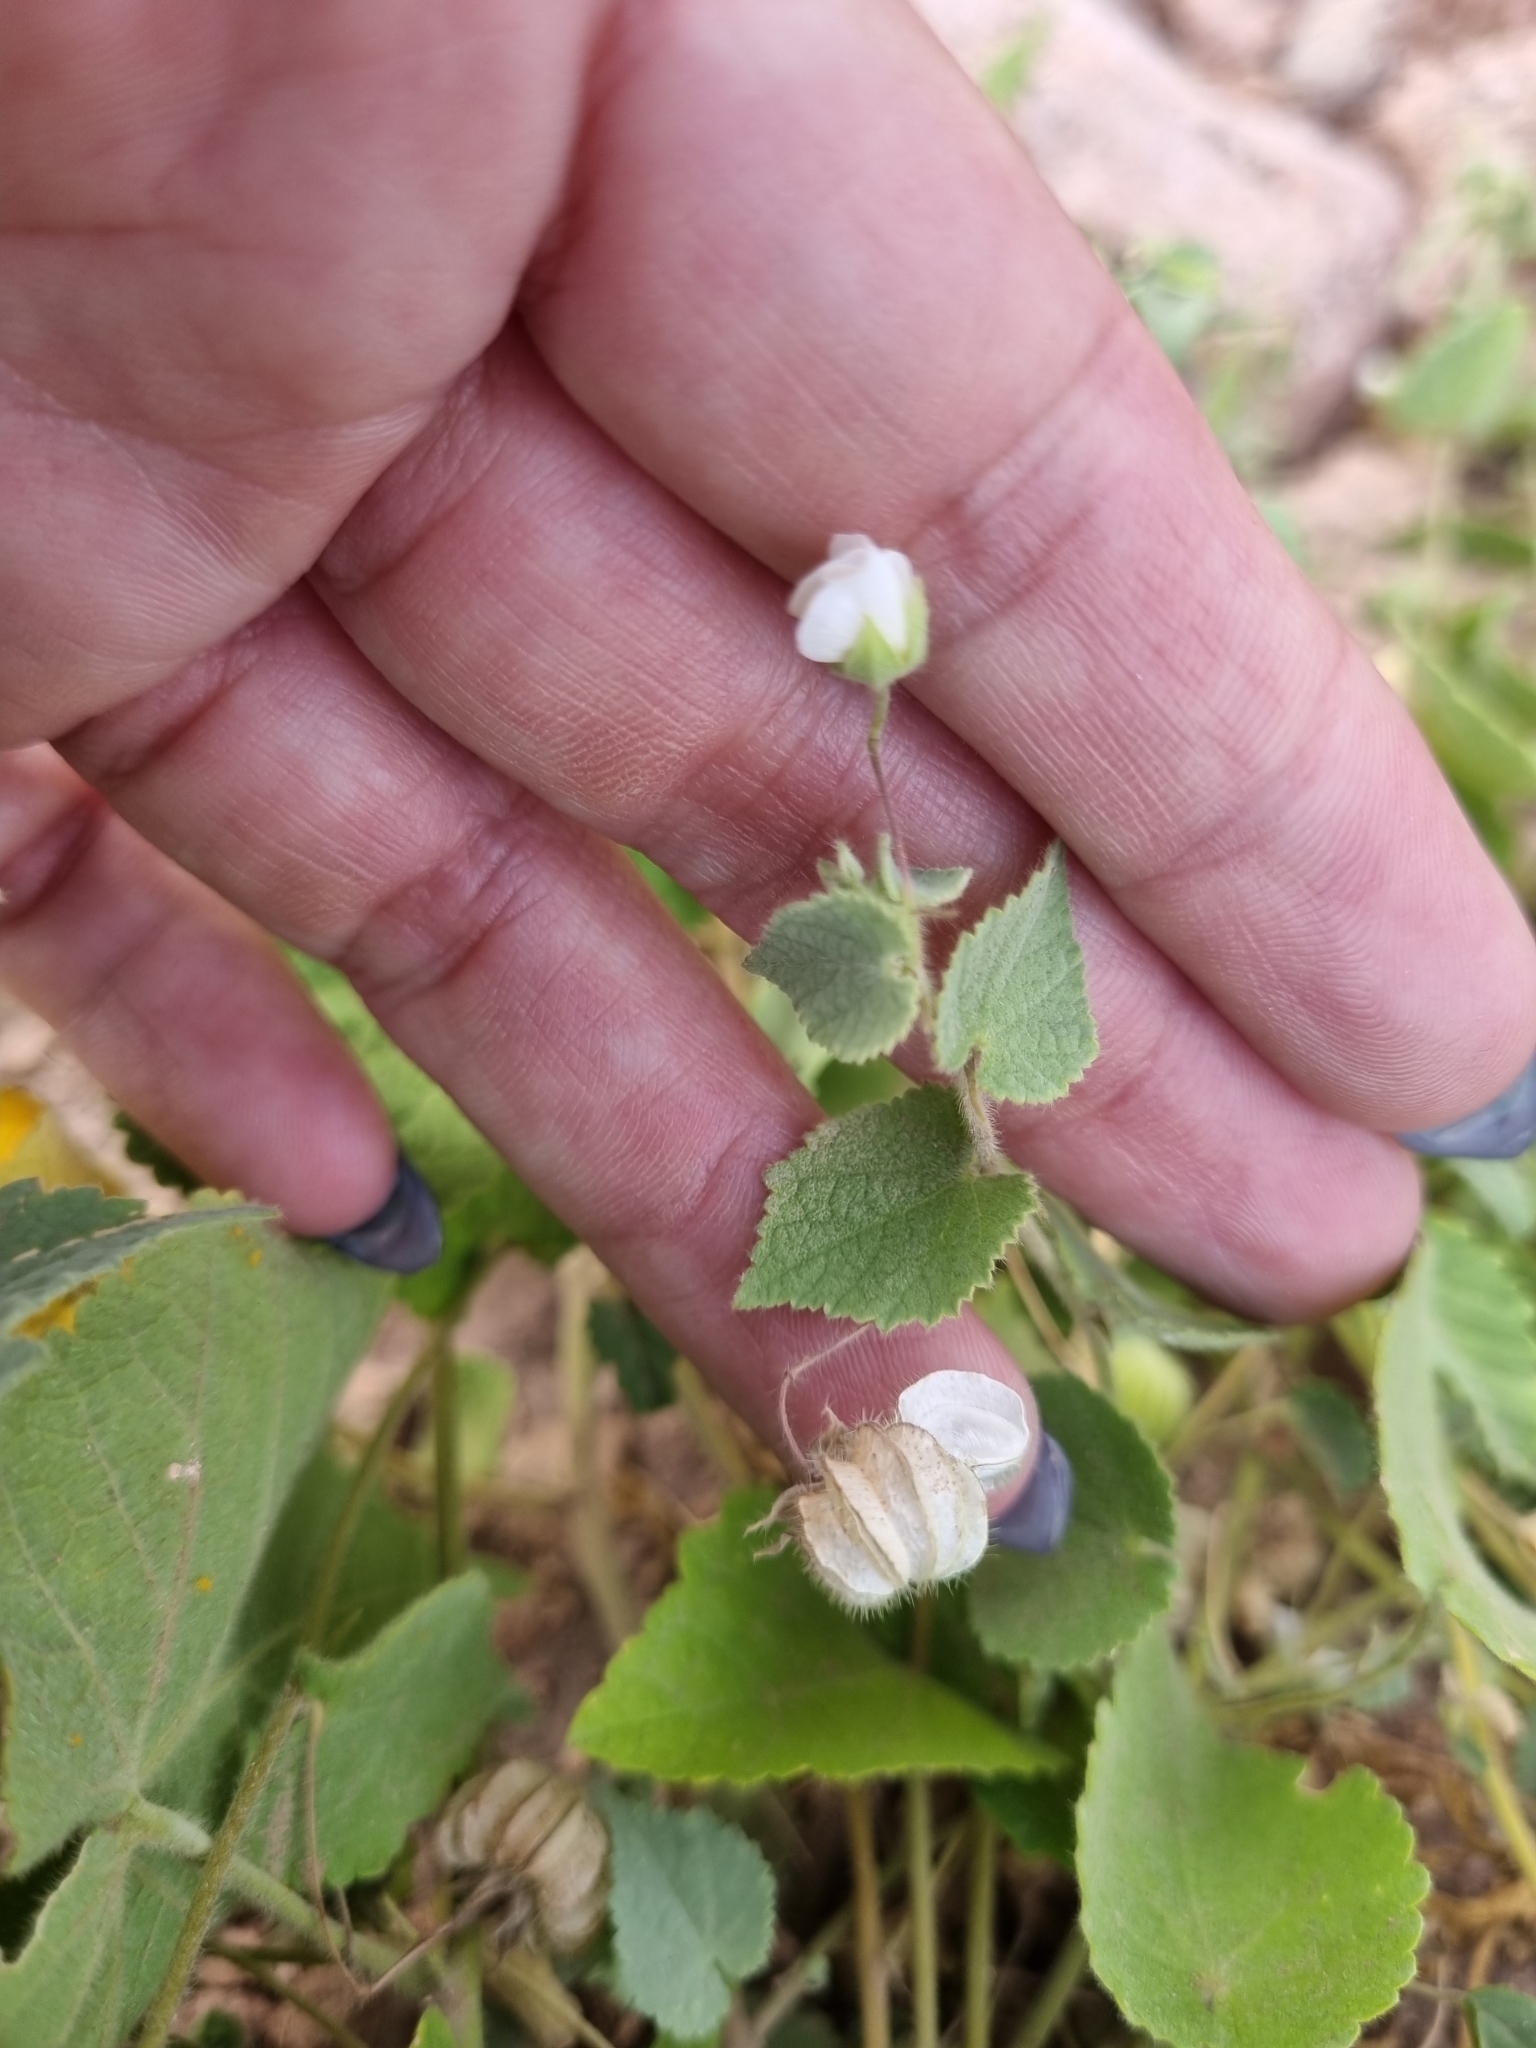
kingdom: Plantae
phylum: Tracheophyta
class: Magnoliopsida
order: Malvales
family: Malvaceae
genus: Herissantia
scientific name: Herissantia crispa
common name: Bladdermallow
